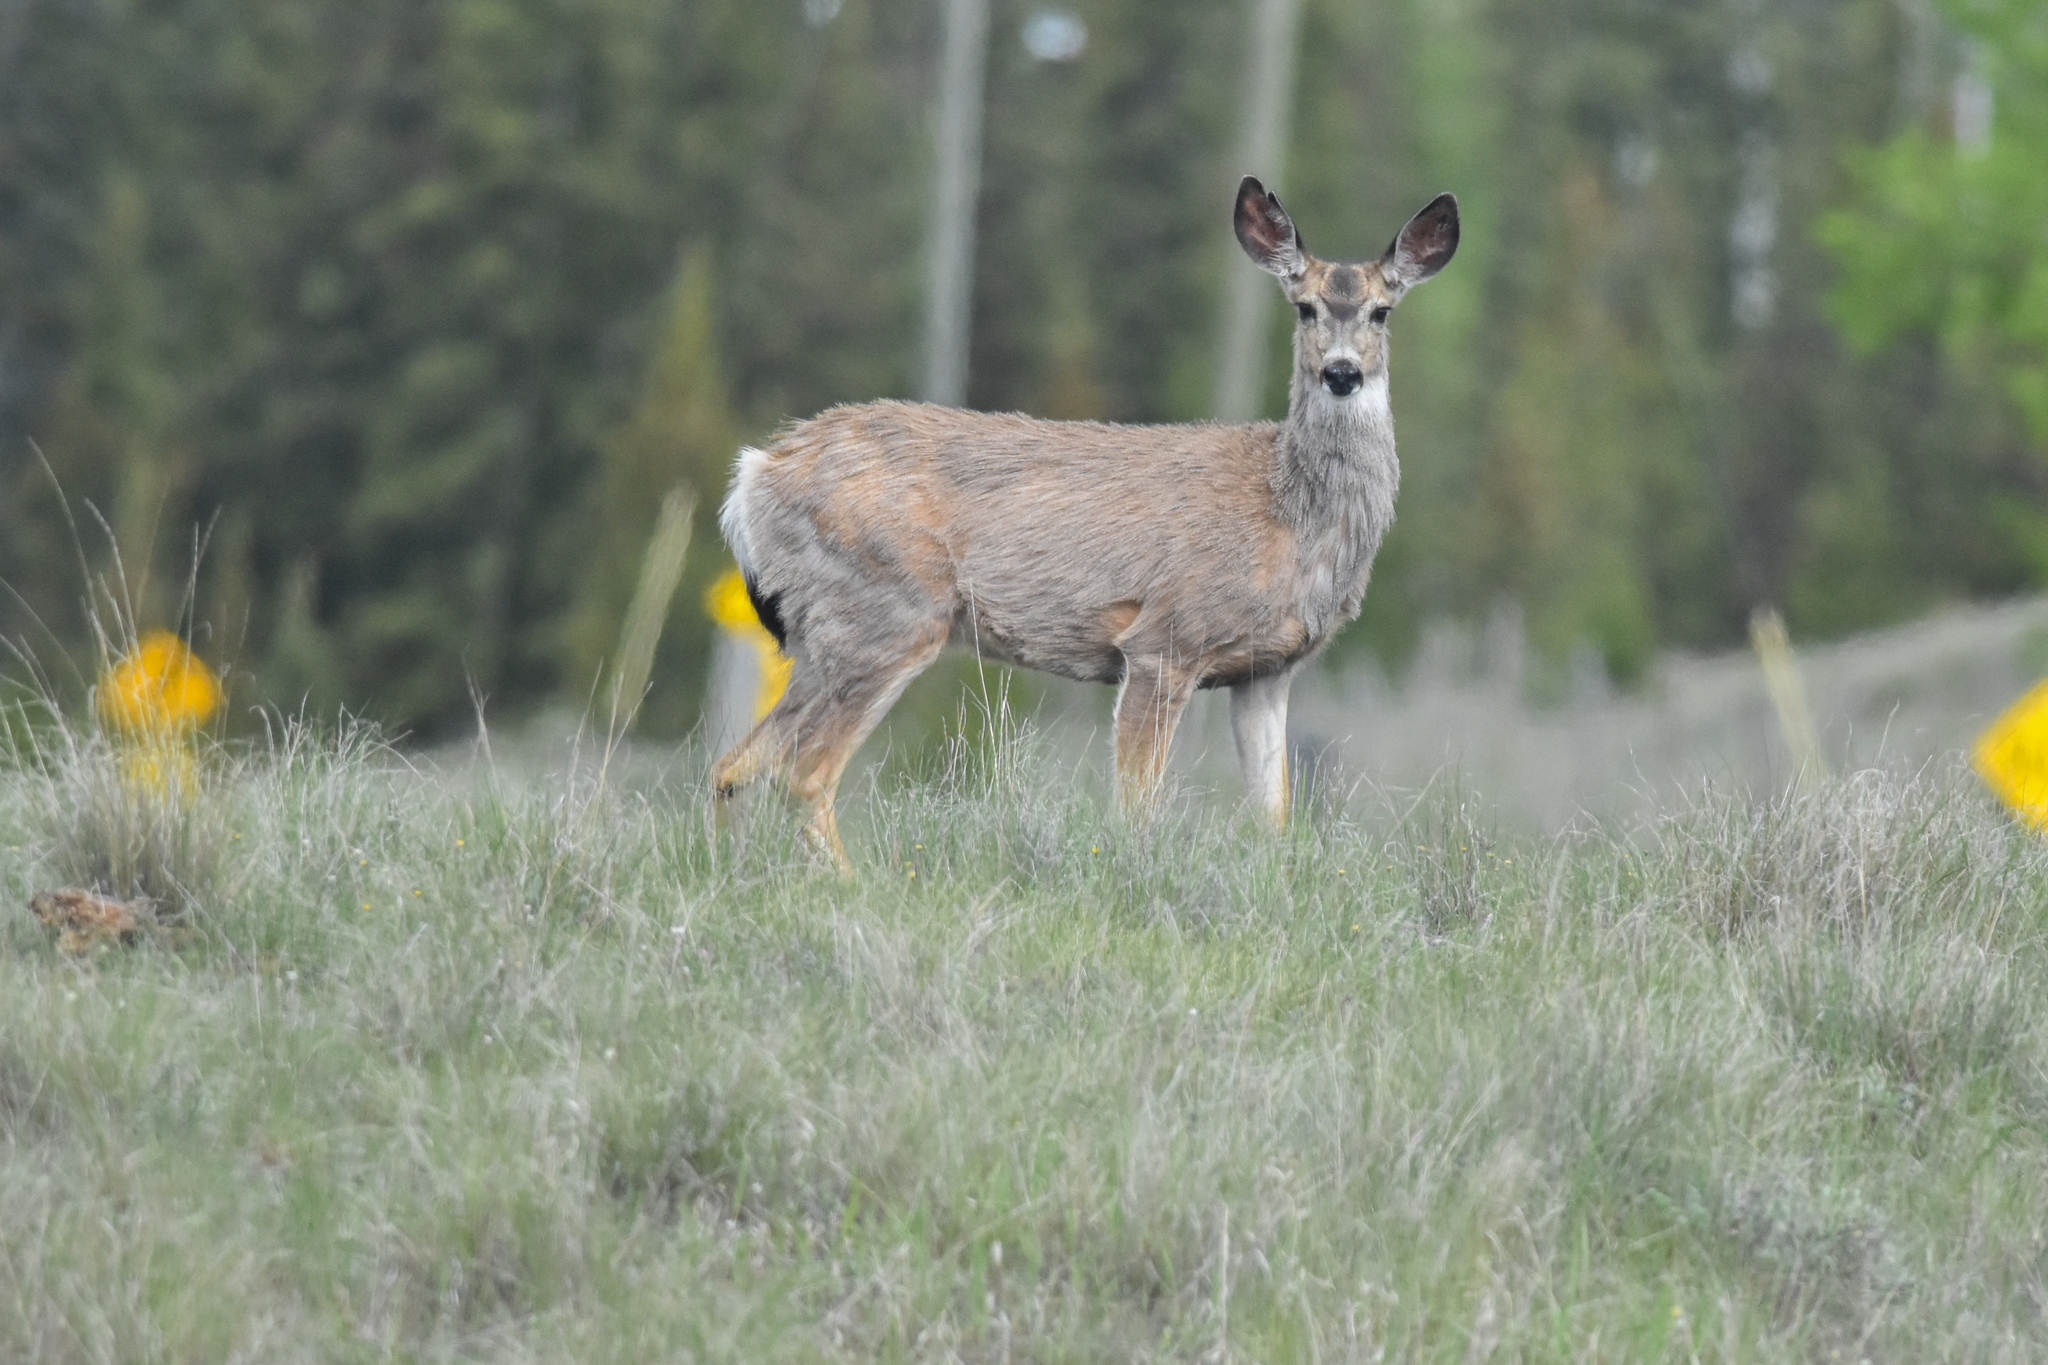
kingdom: Animalia
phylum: Chordata
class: Mammalia
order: Artiodactyla
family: Cervidae
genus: Odocoileus
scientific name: Odocoileus hemionus
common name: Mule deer
